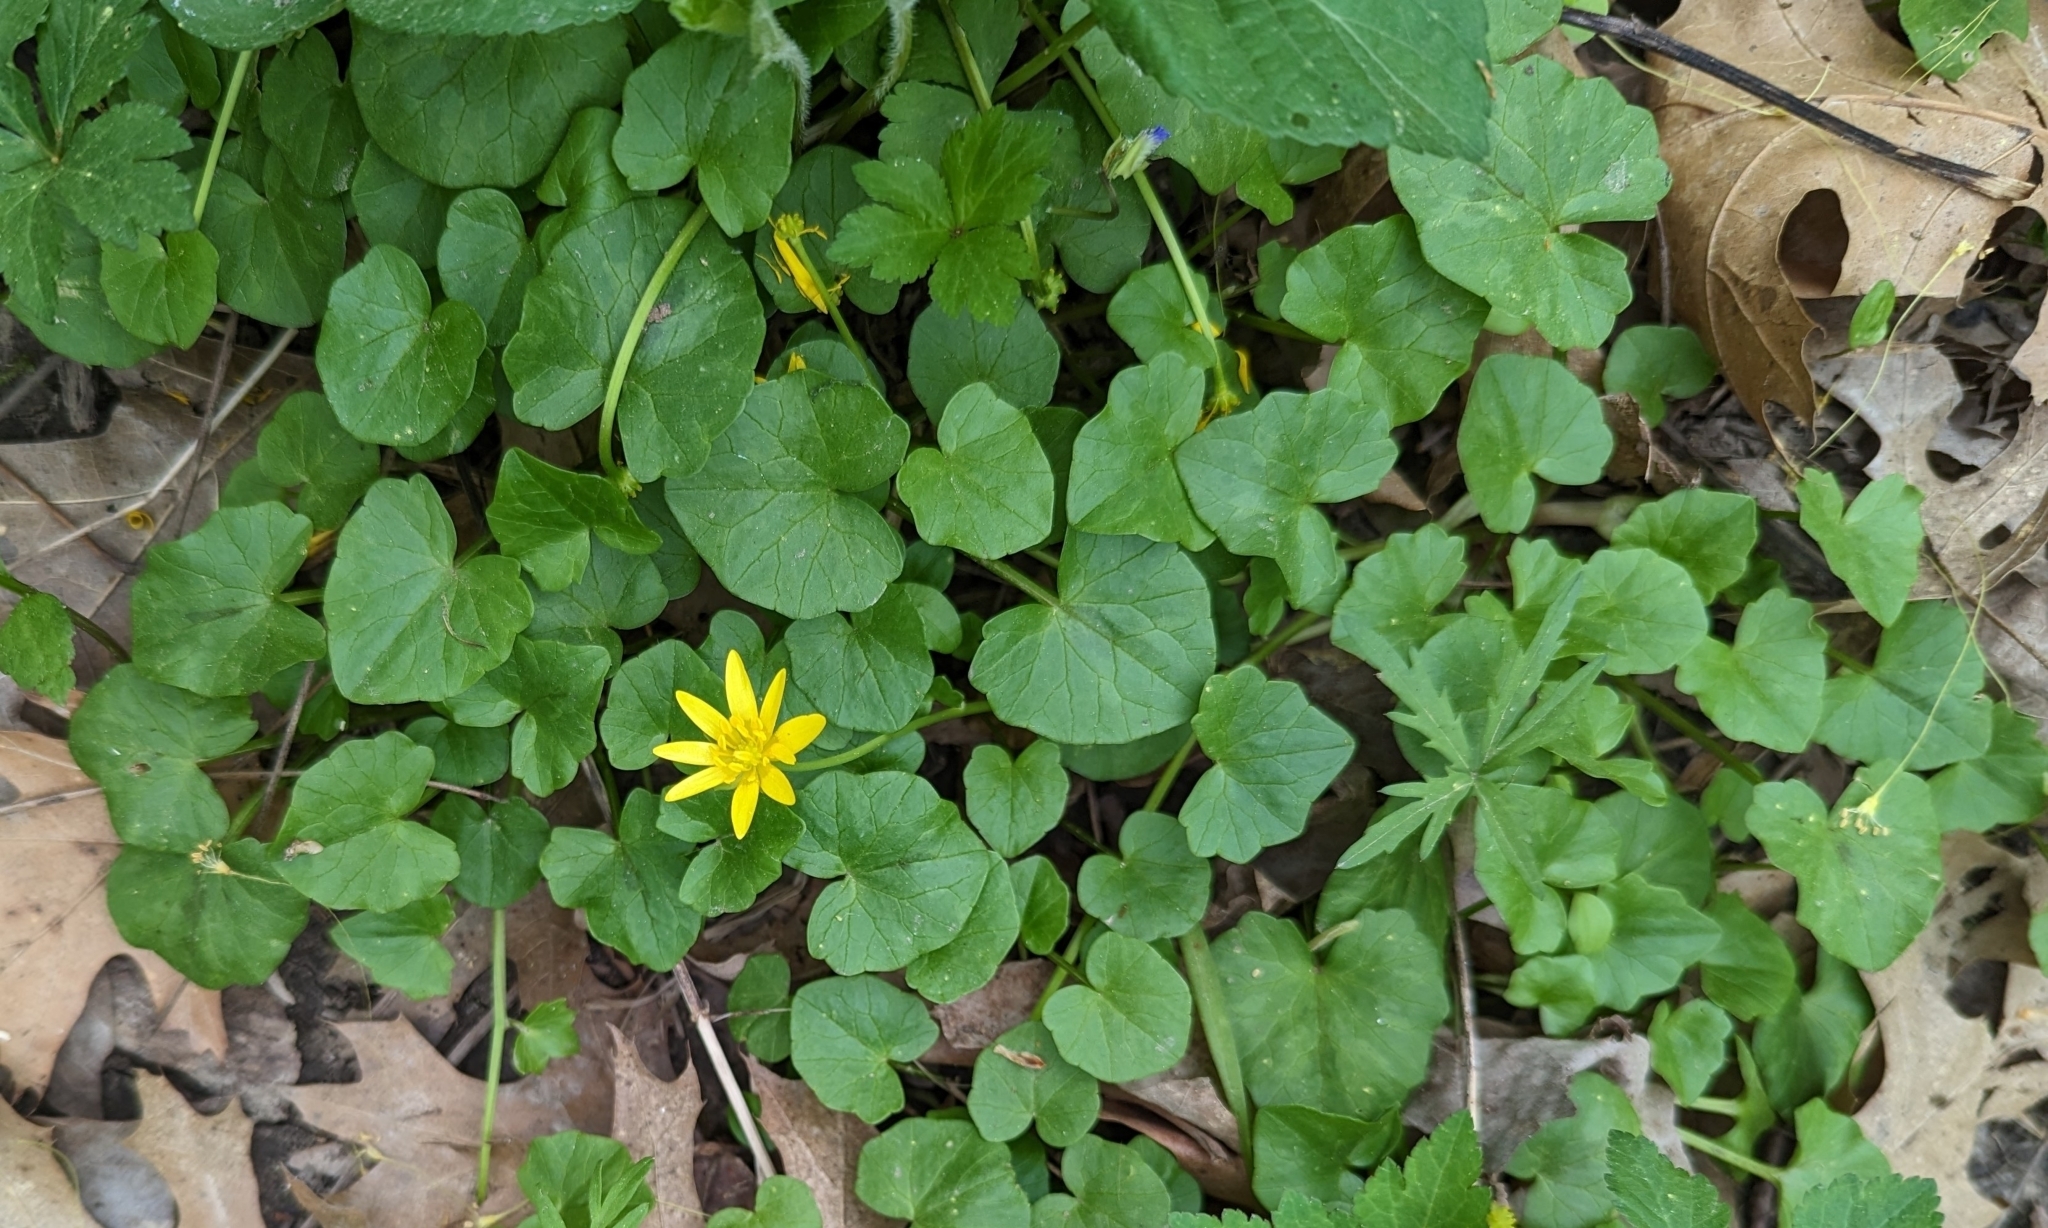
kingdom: Plantae
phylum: Tracheophyta
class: Magnoliopsida
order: Ranunculales
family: Ranunculaceae
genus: Ficaria
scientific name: Ficaria verna
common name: Lesser celandine
